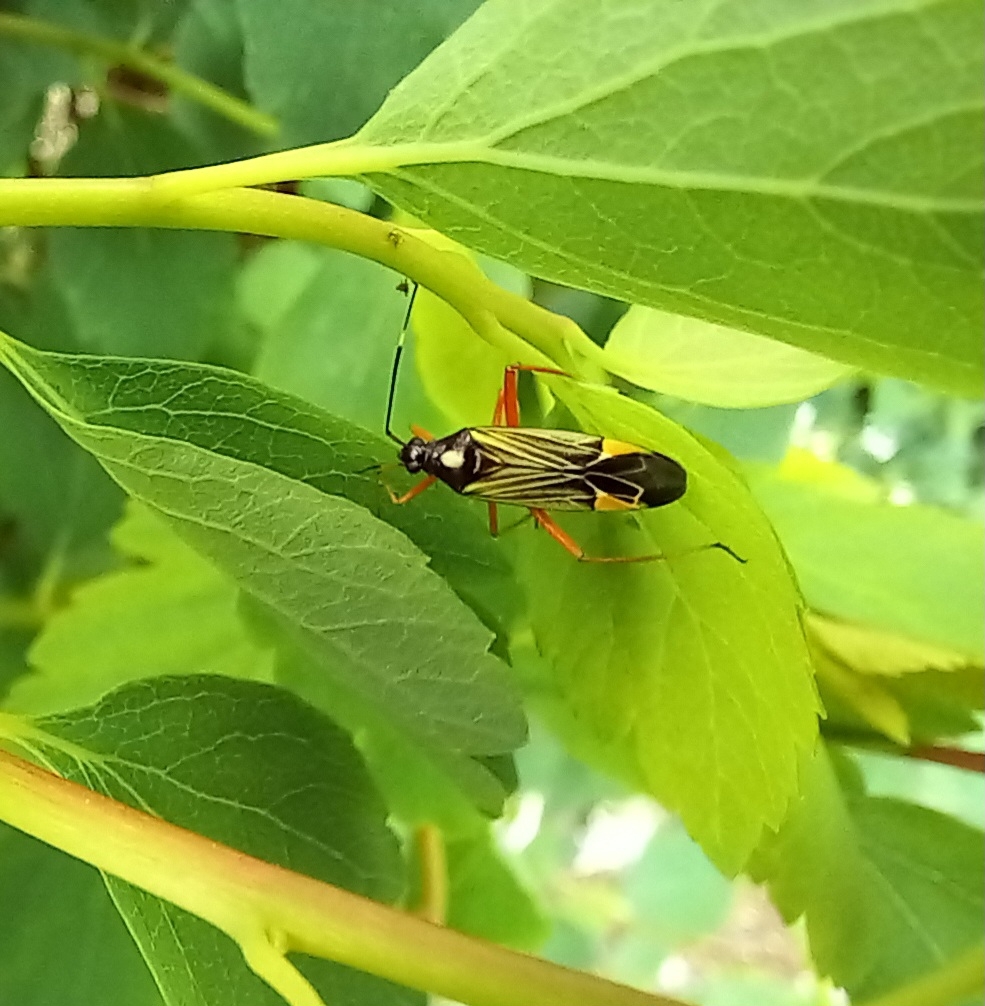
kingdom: Animalia
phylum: Arthropoda
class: Insecta
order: Hemiptera
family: Miridae
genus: Miris
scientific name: Miris striatus
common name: Fine streaked bugkin
